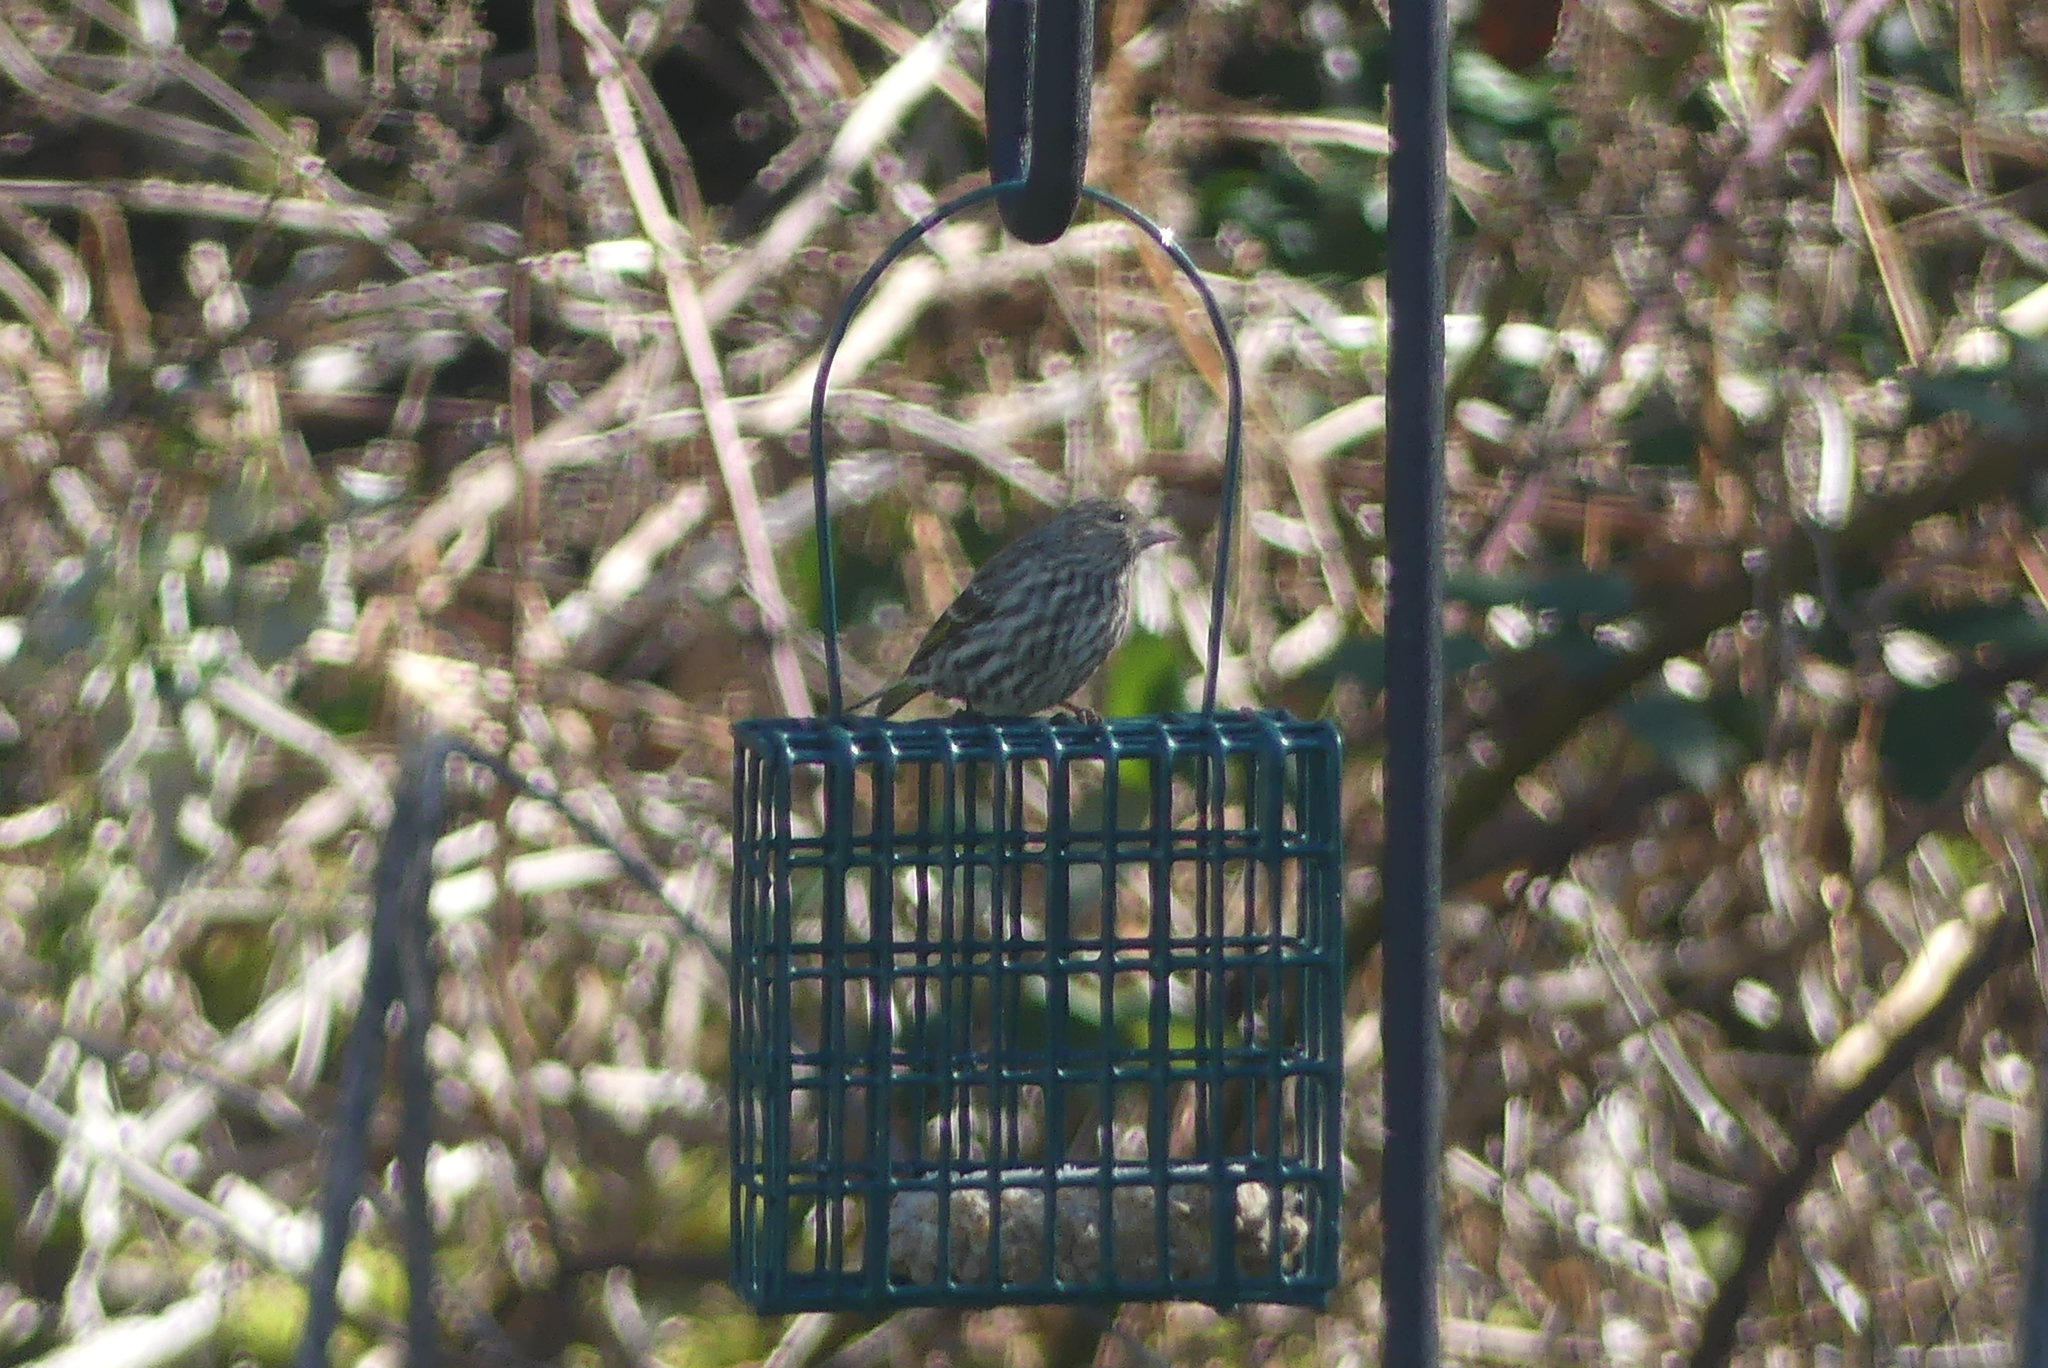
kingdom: Animalia
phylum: Chordata
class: Aves
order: Passeriformes
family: Fringillidae
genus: Spinus
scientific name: Spinus pinus
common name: Pine siskin
